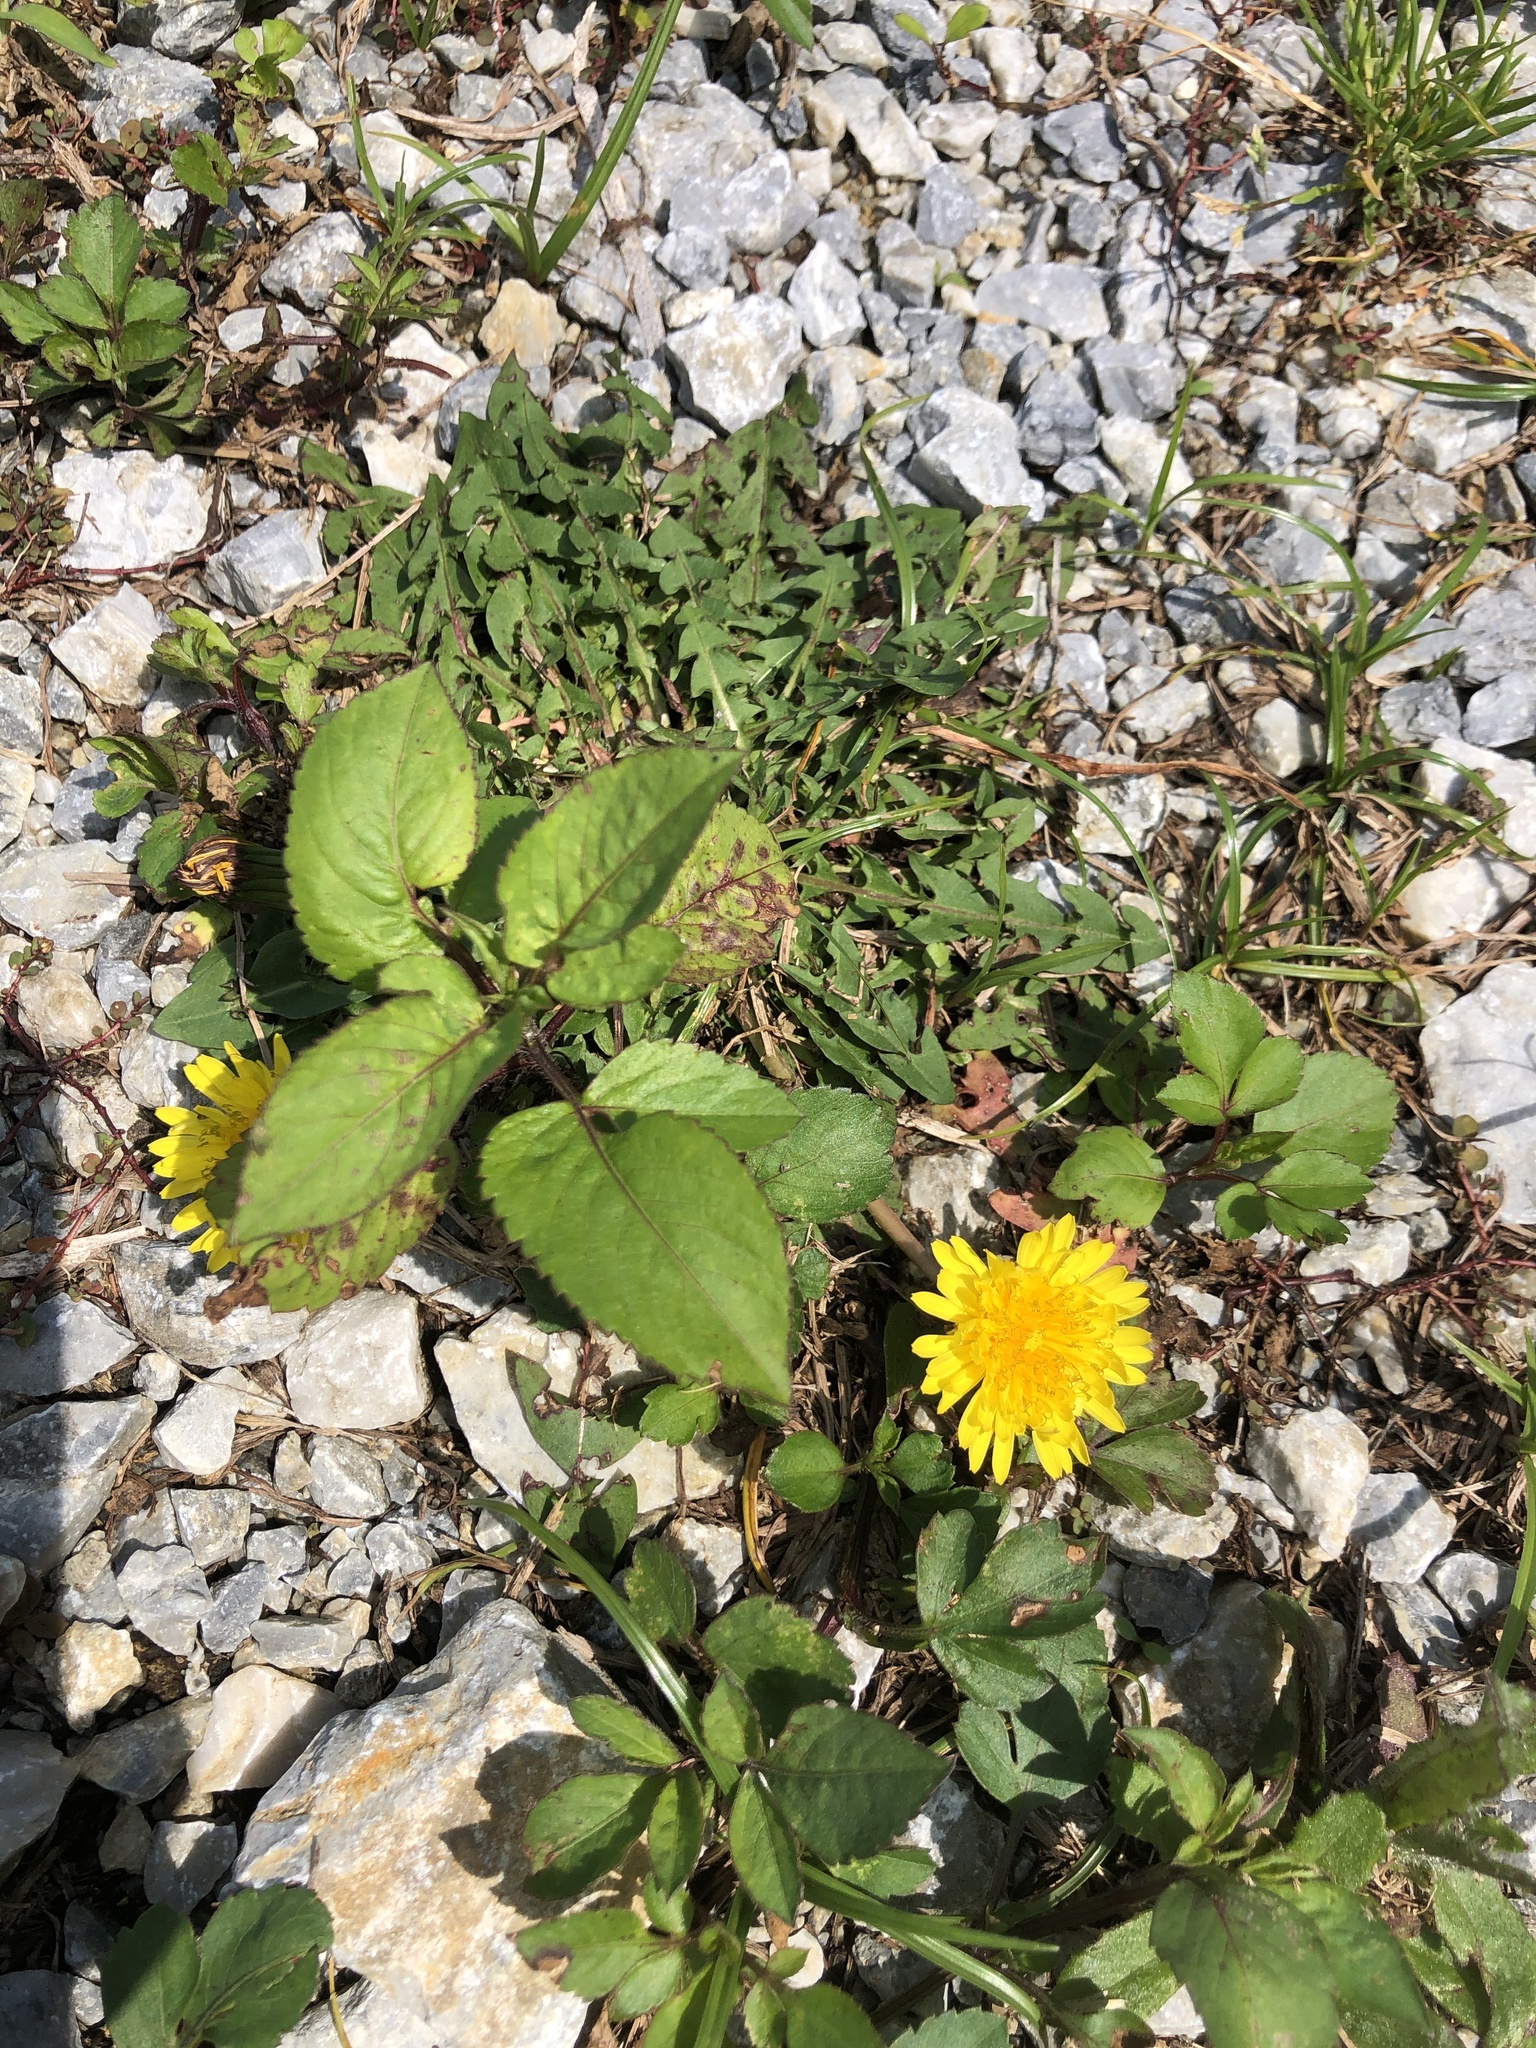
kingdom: Plantae
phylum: Tracheophyta
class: Magnoliopsida
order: Asterales
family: Asteraceae
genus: Taraxacum
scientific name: Taraxacum officinale
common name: Common dandelion
